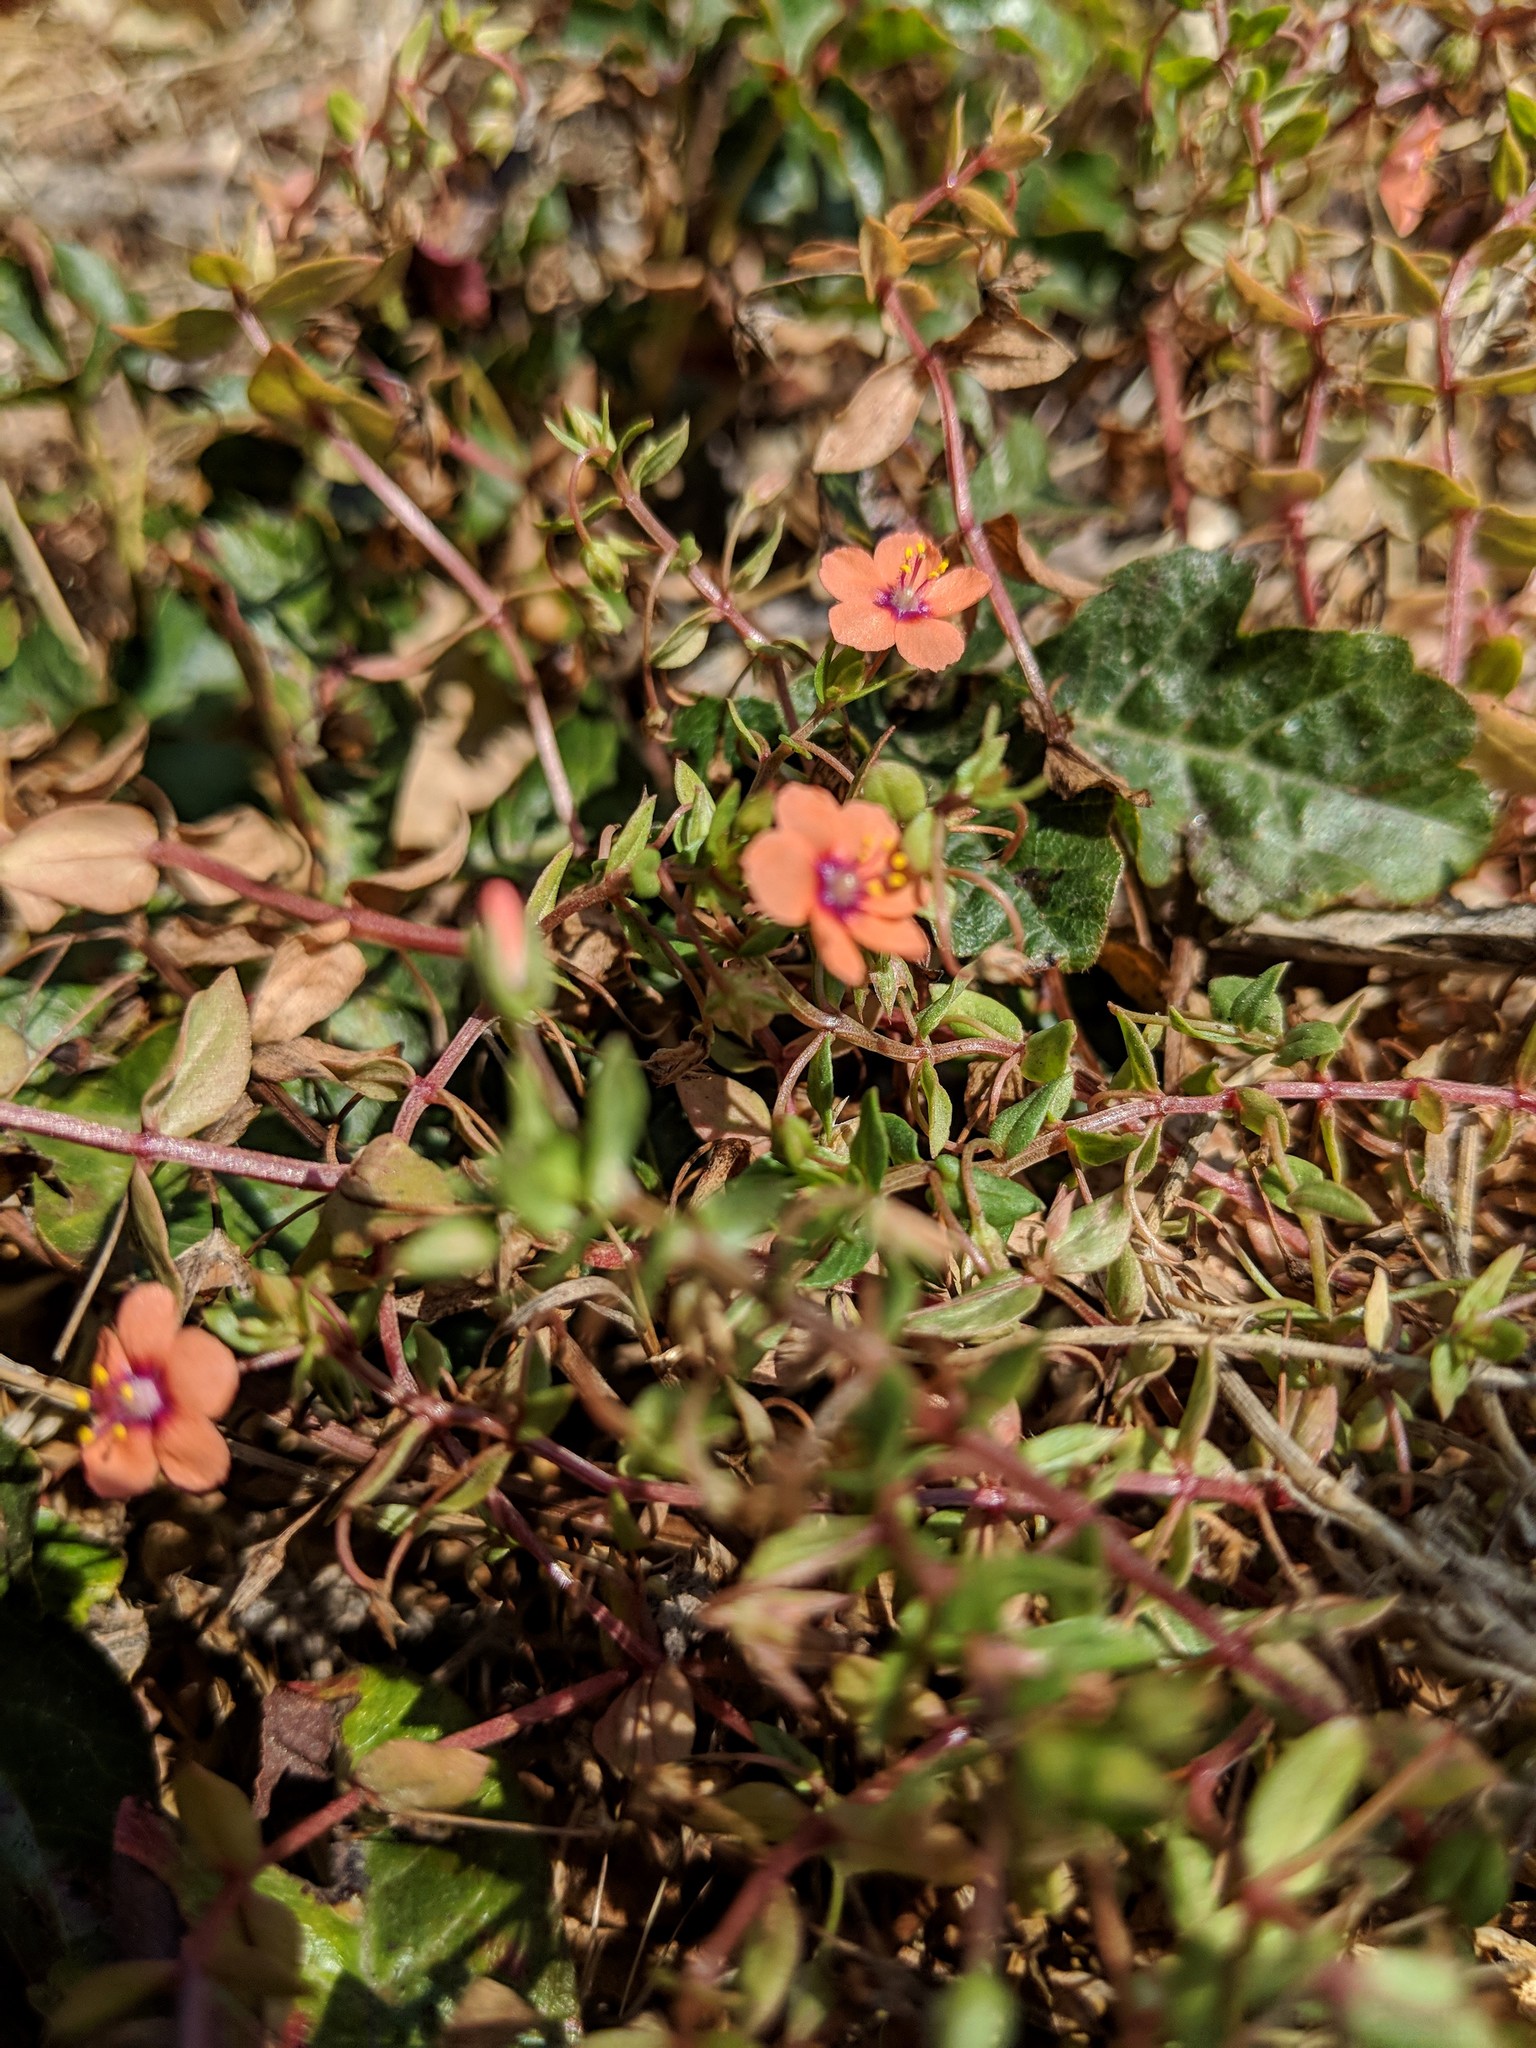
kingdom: Plantae
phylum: Tracheophyta
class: Magnoliopsida
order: Ericales
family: Primulaceae
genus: Lysimachia
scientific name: Lysimachia arvensis
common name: Scarlet pimpernel
